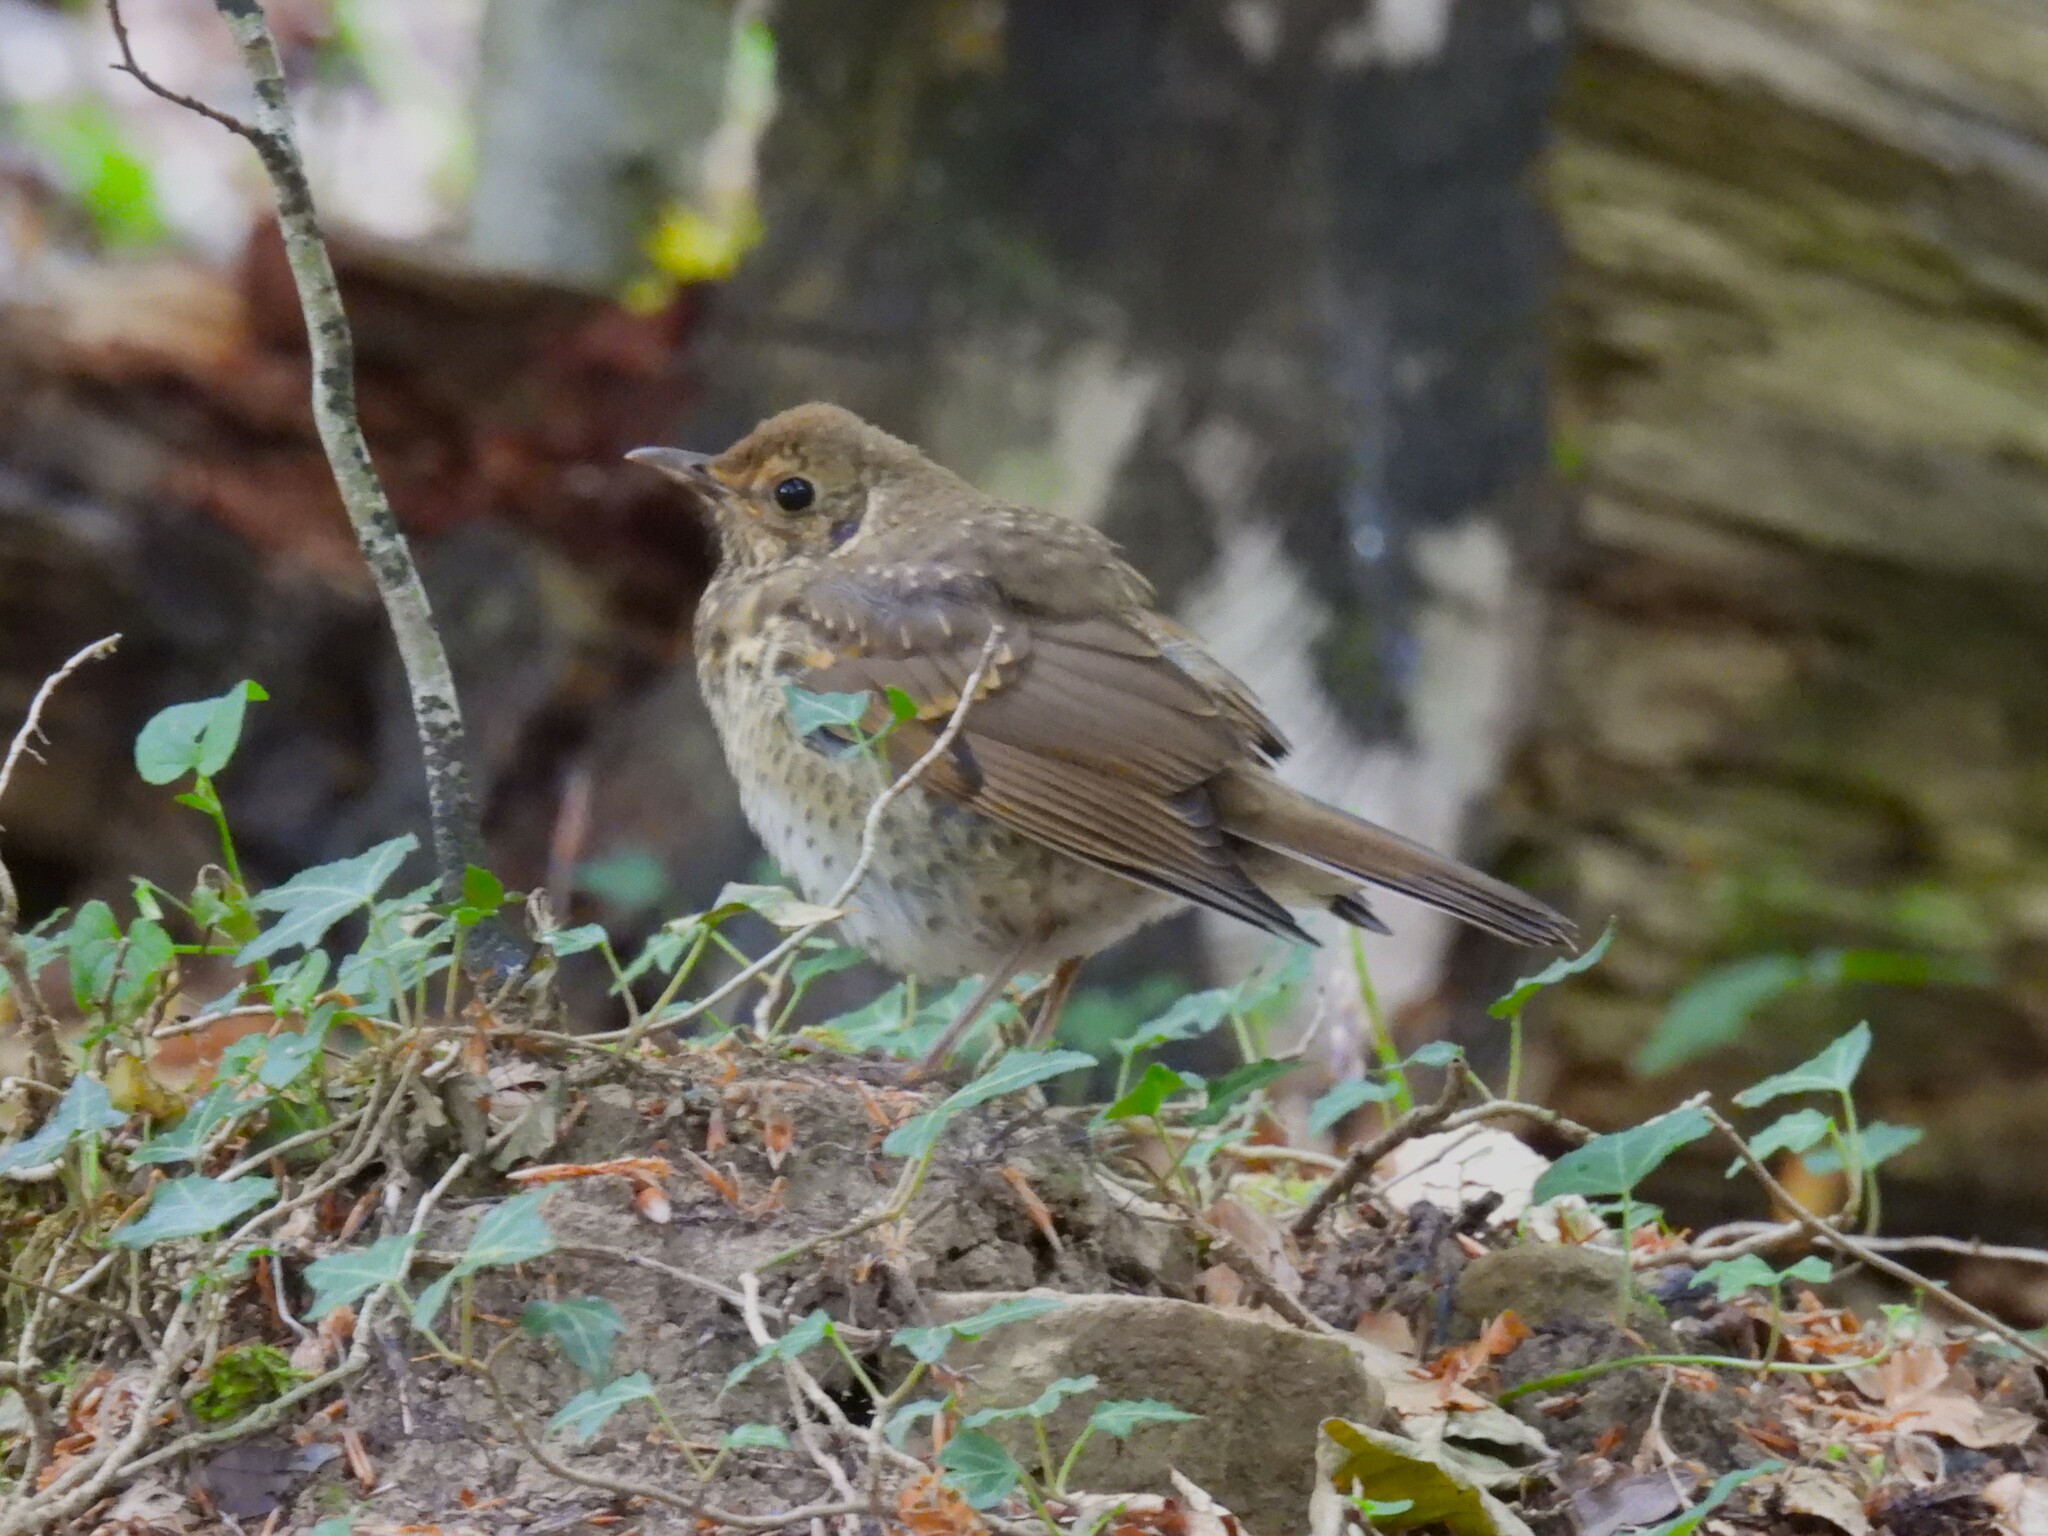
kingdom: Animalia
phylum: Chordata
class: Aves
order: Passeriformes
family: Turdidae
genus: Turdus
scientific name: Turdus philomelos
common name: Song thrush
